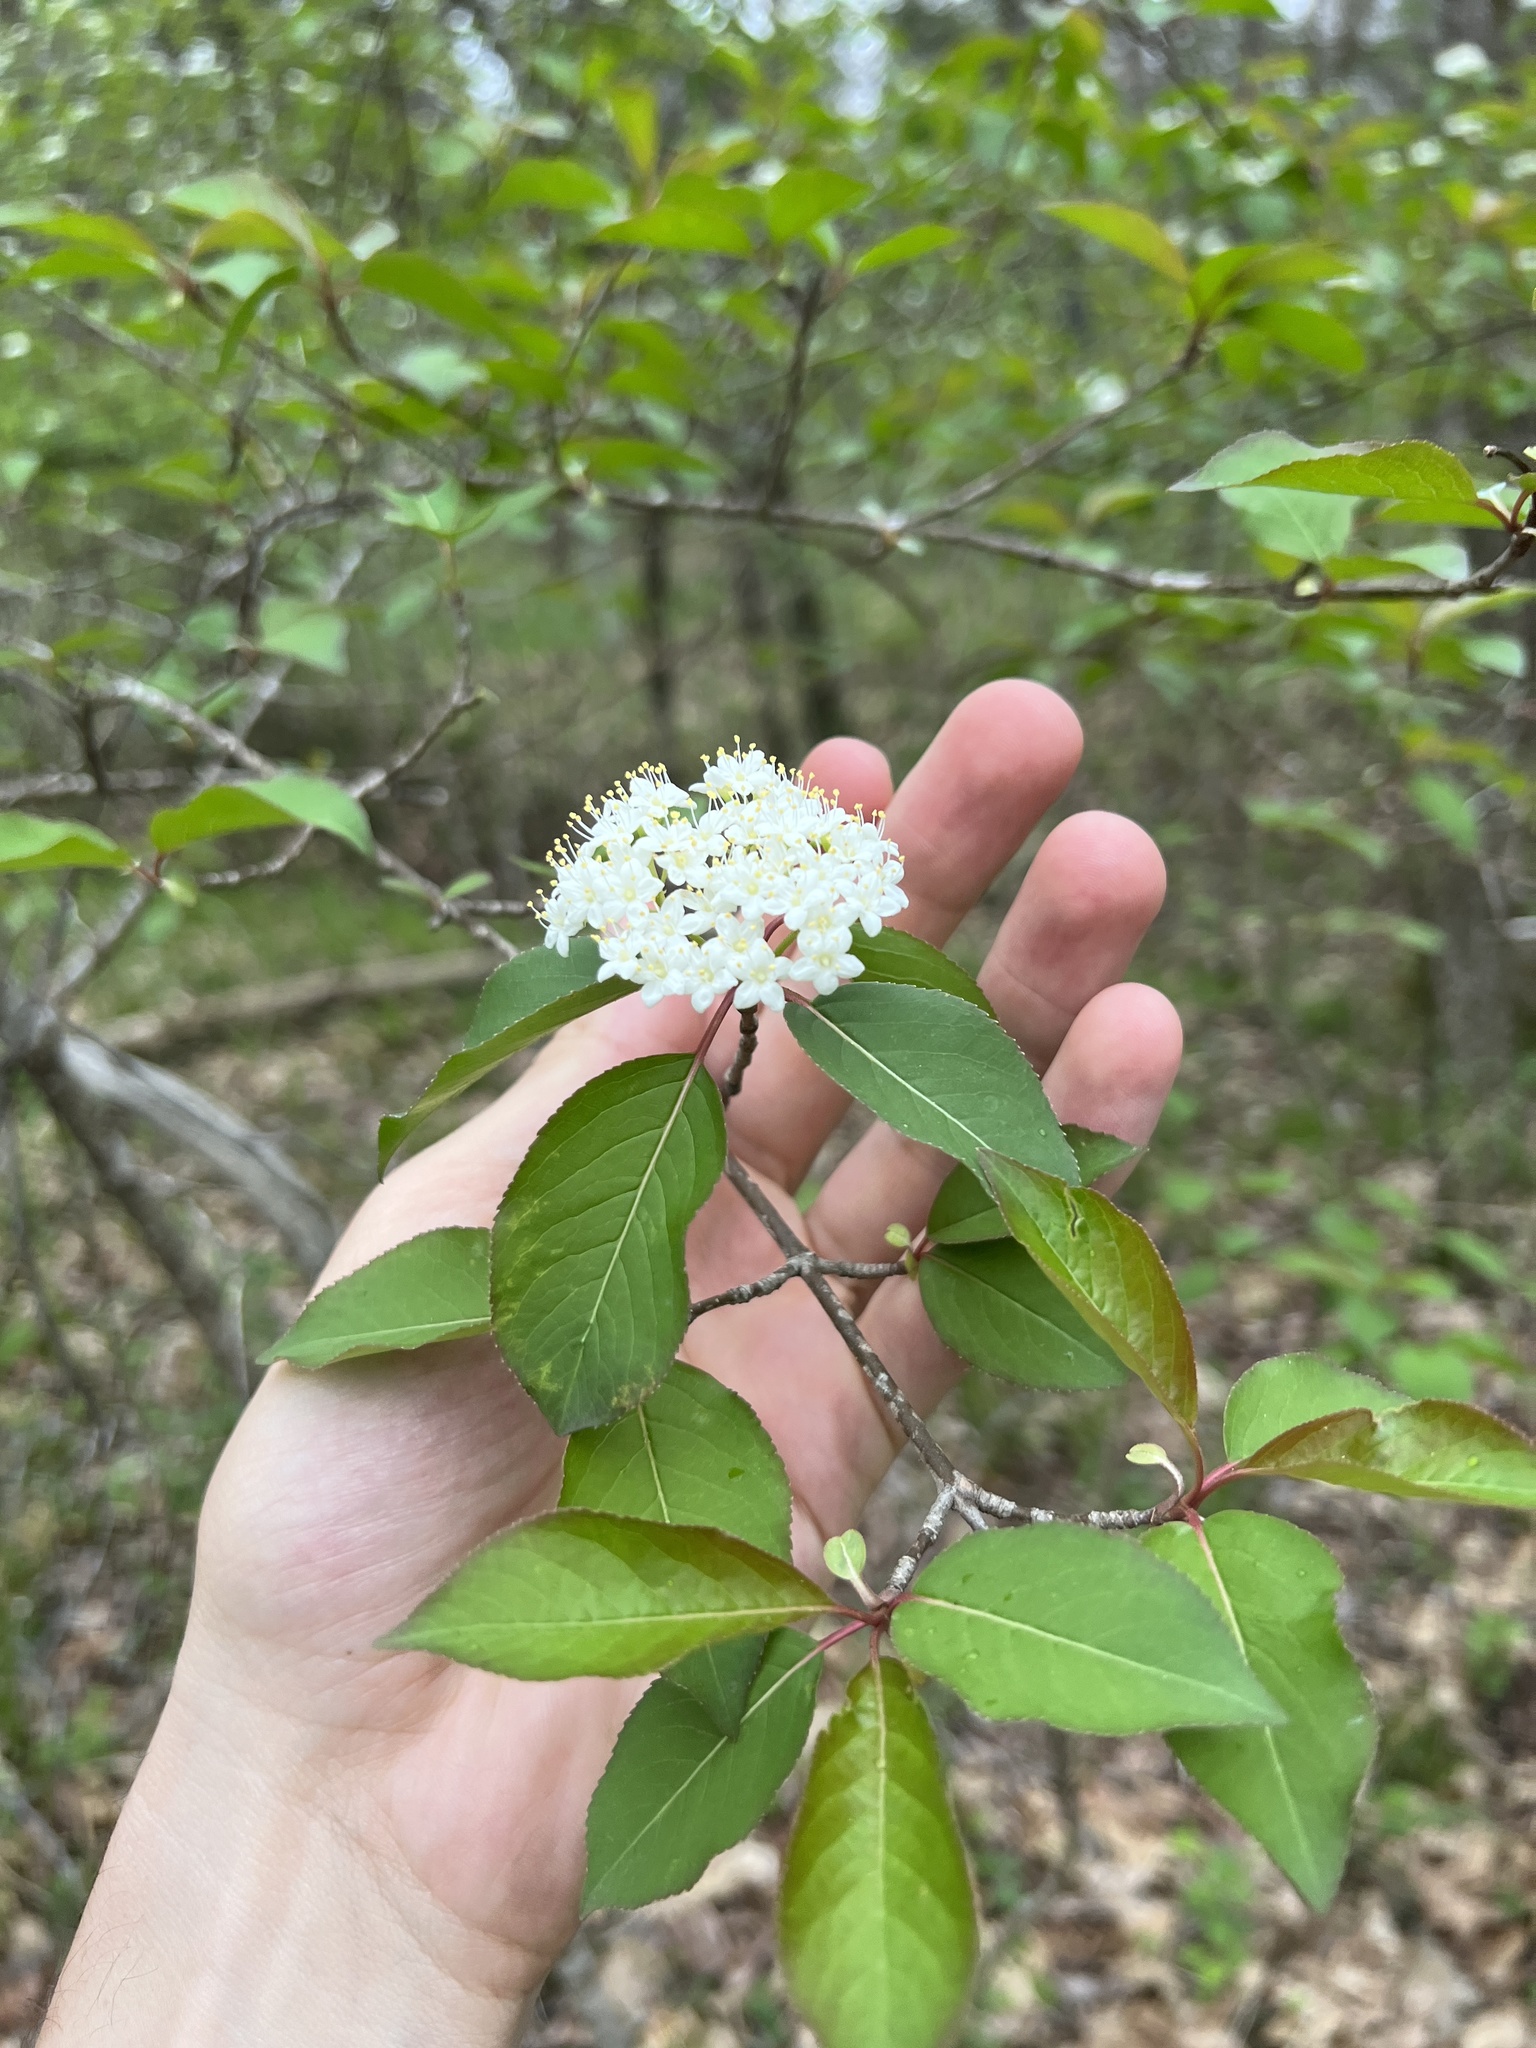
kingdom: Plantae
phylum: Tracheophyta
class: Magnoliopsida
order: Dipsacales
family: Viburnaceae
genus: Viburnum
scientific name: Viburnum prunifolium
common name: Black haw
